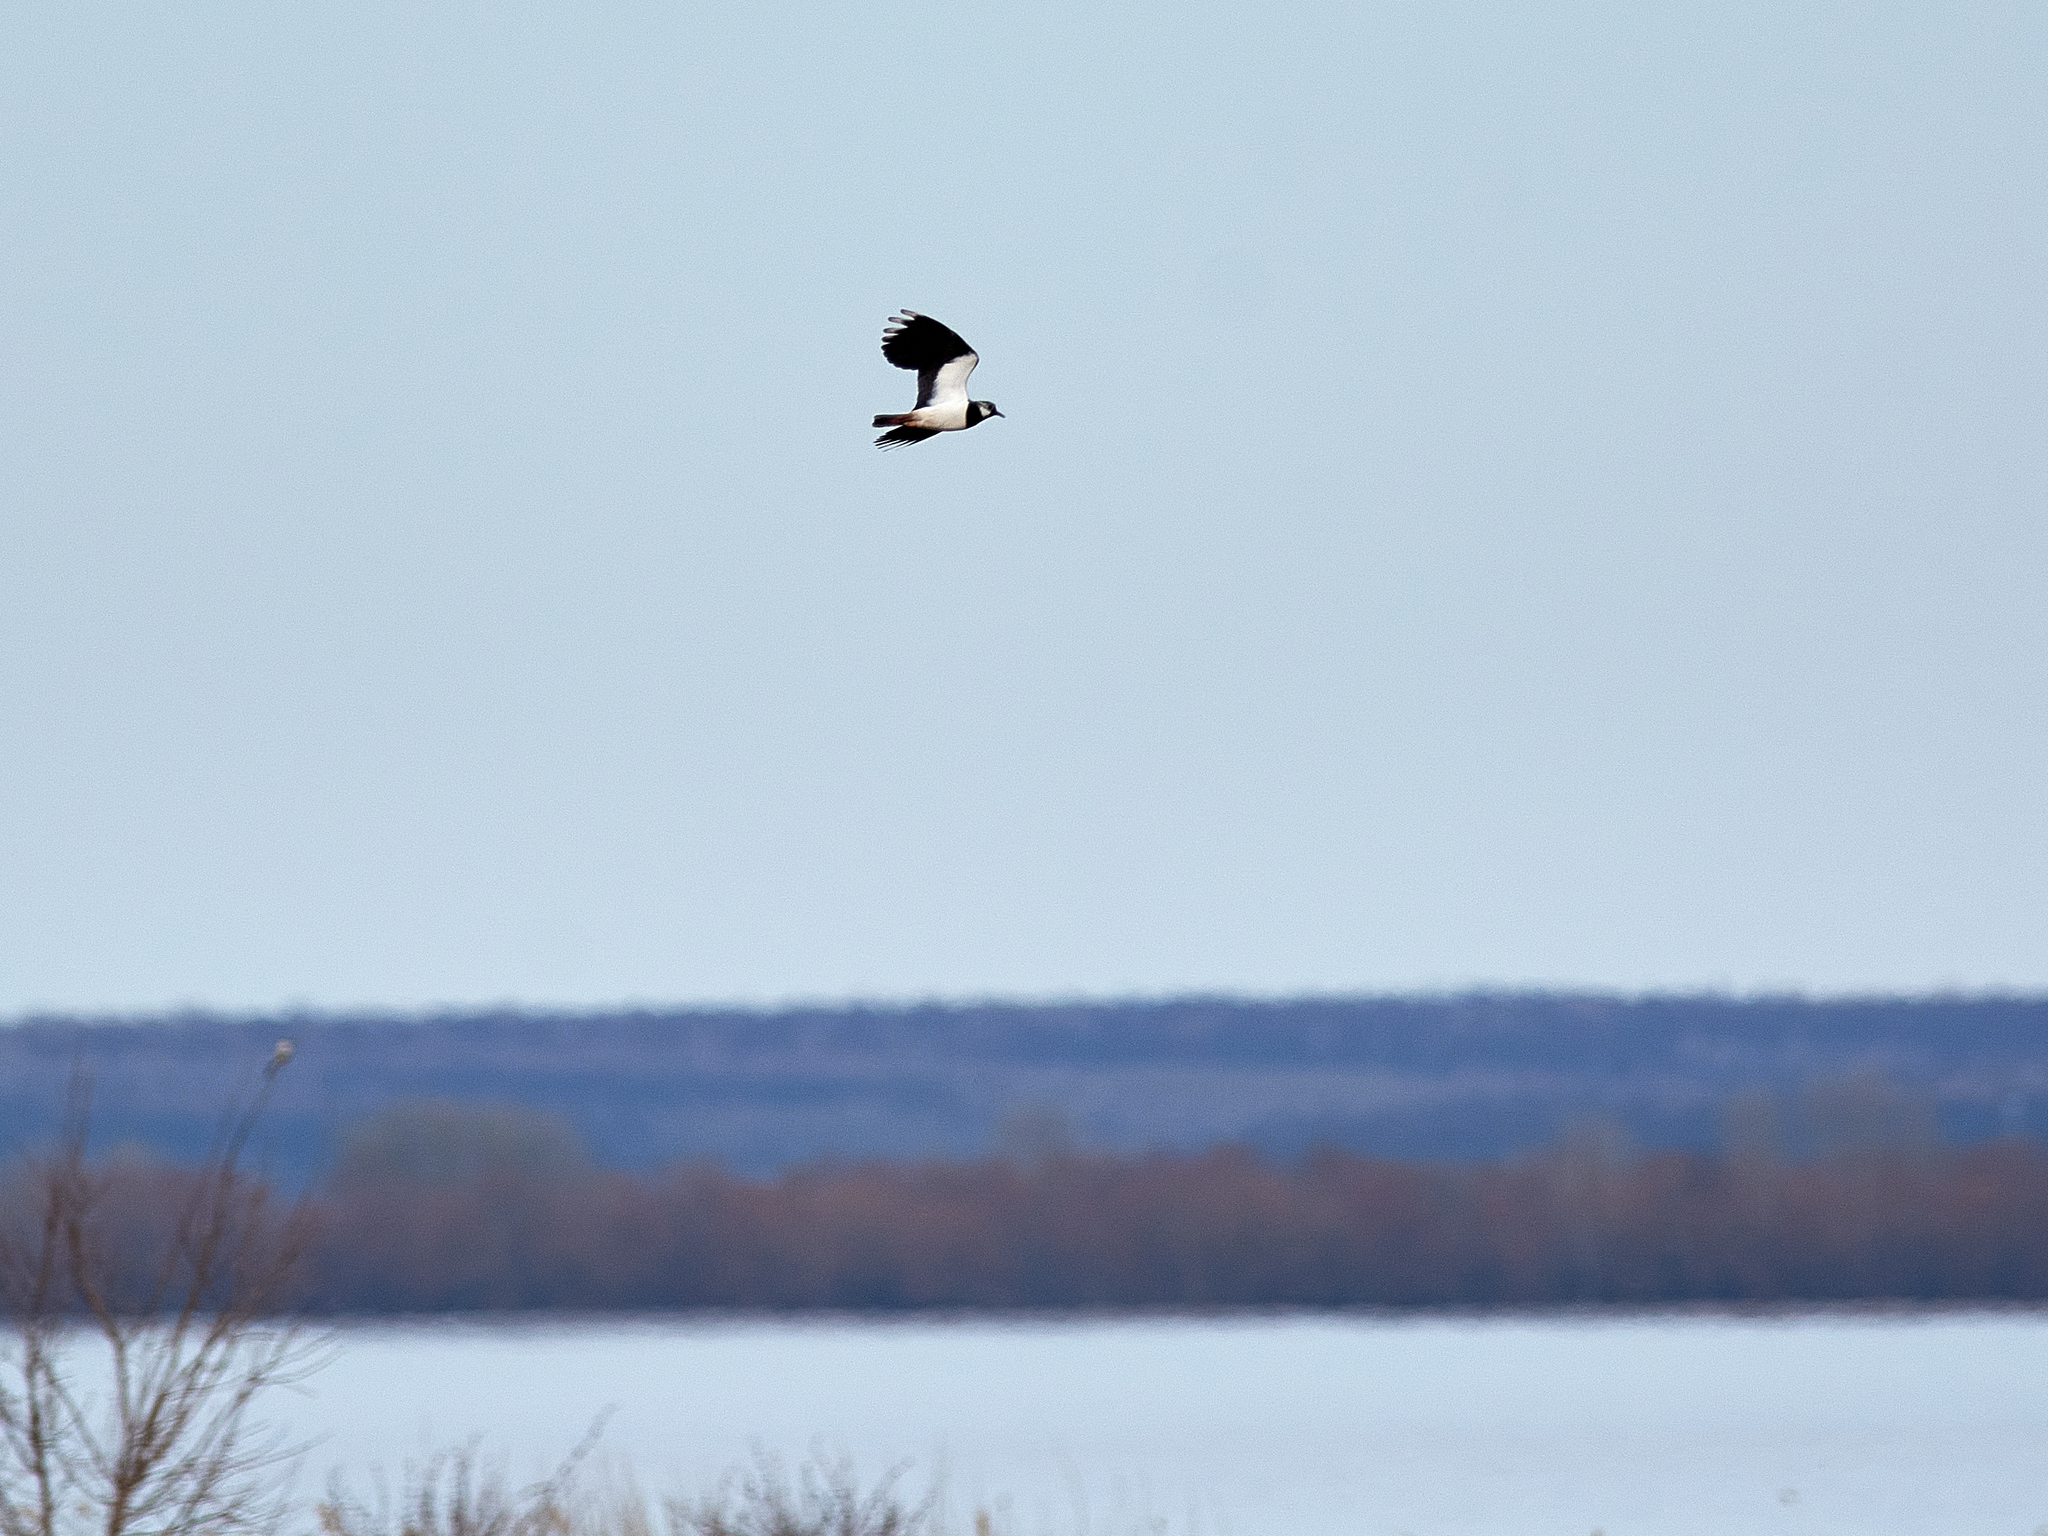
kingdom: Animalia
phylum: Chordata
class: Aves
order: Charadriiformes
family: Charadriidae
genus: Vanellus
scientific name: Vanellus vanellus
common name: Northern lapwing
